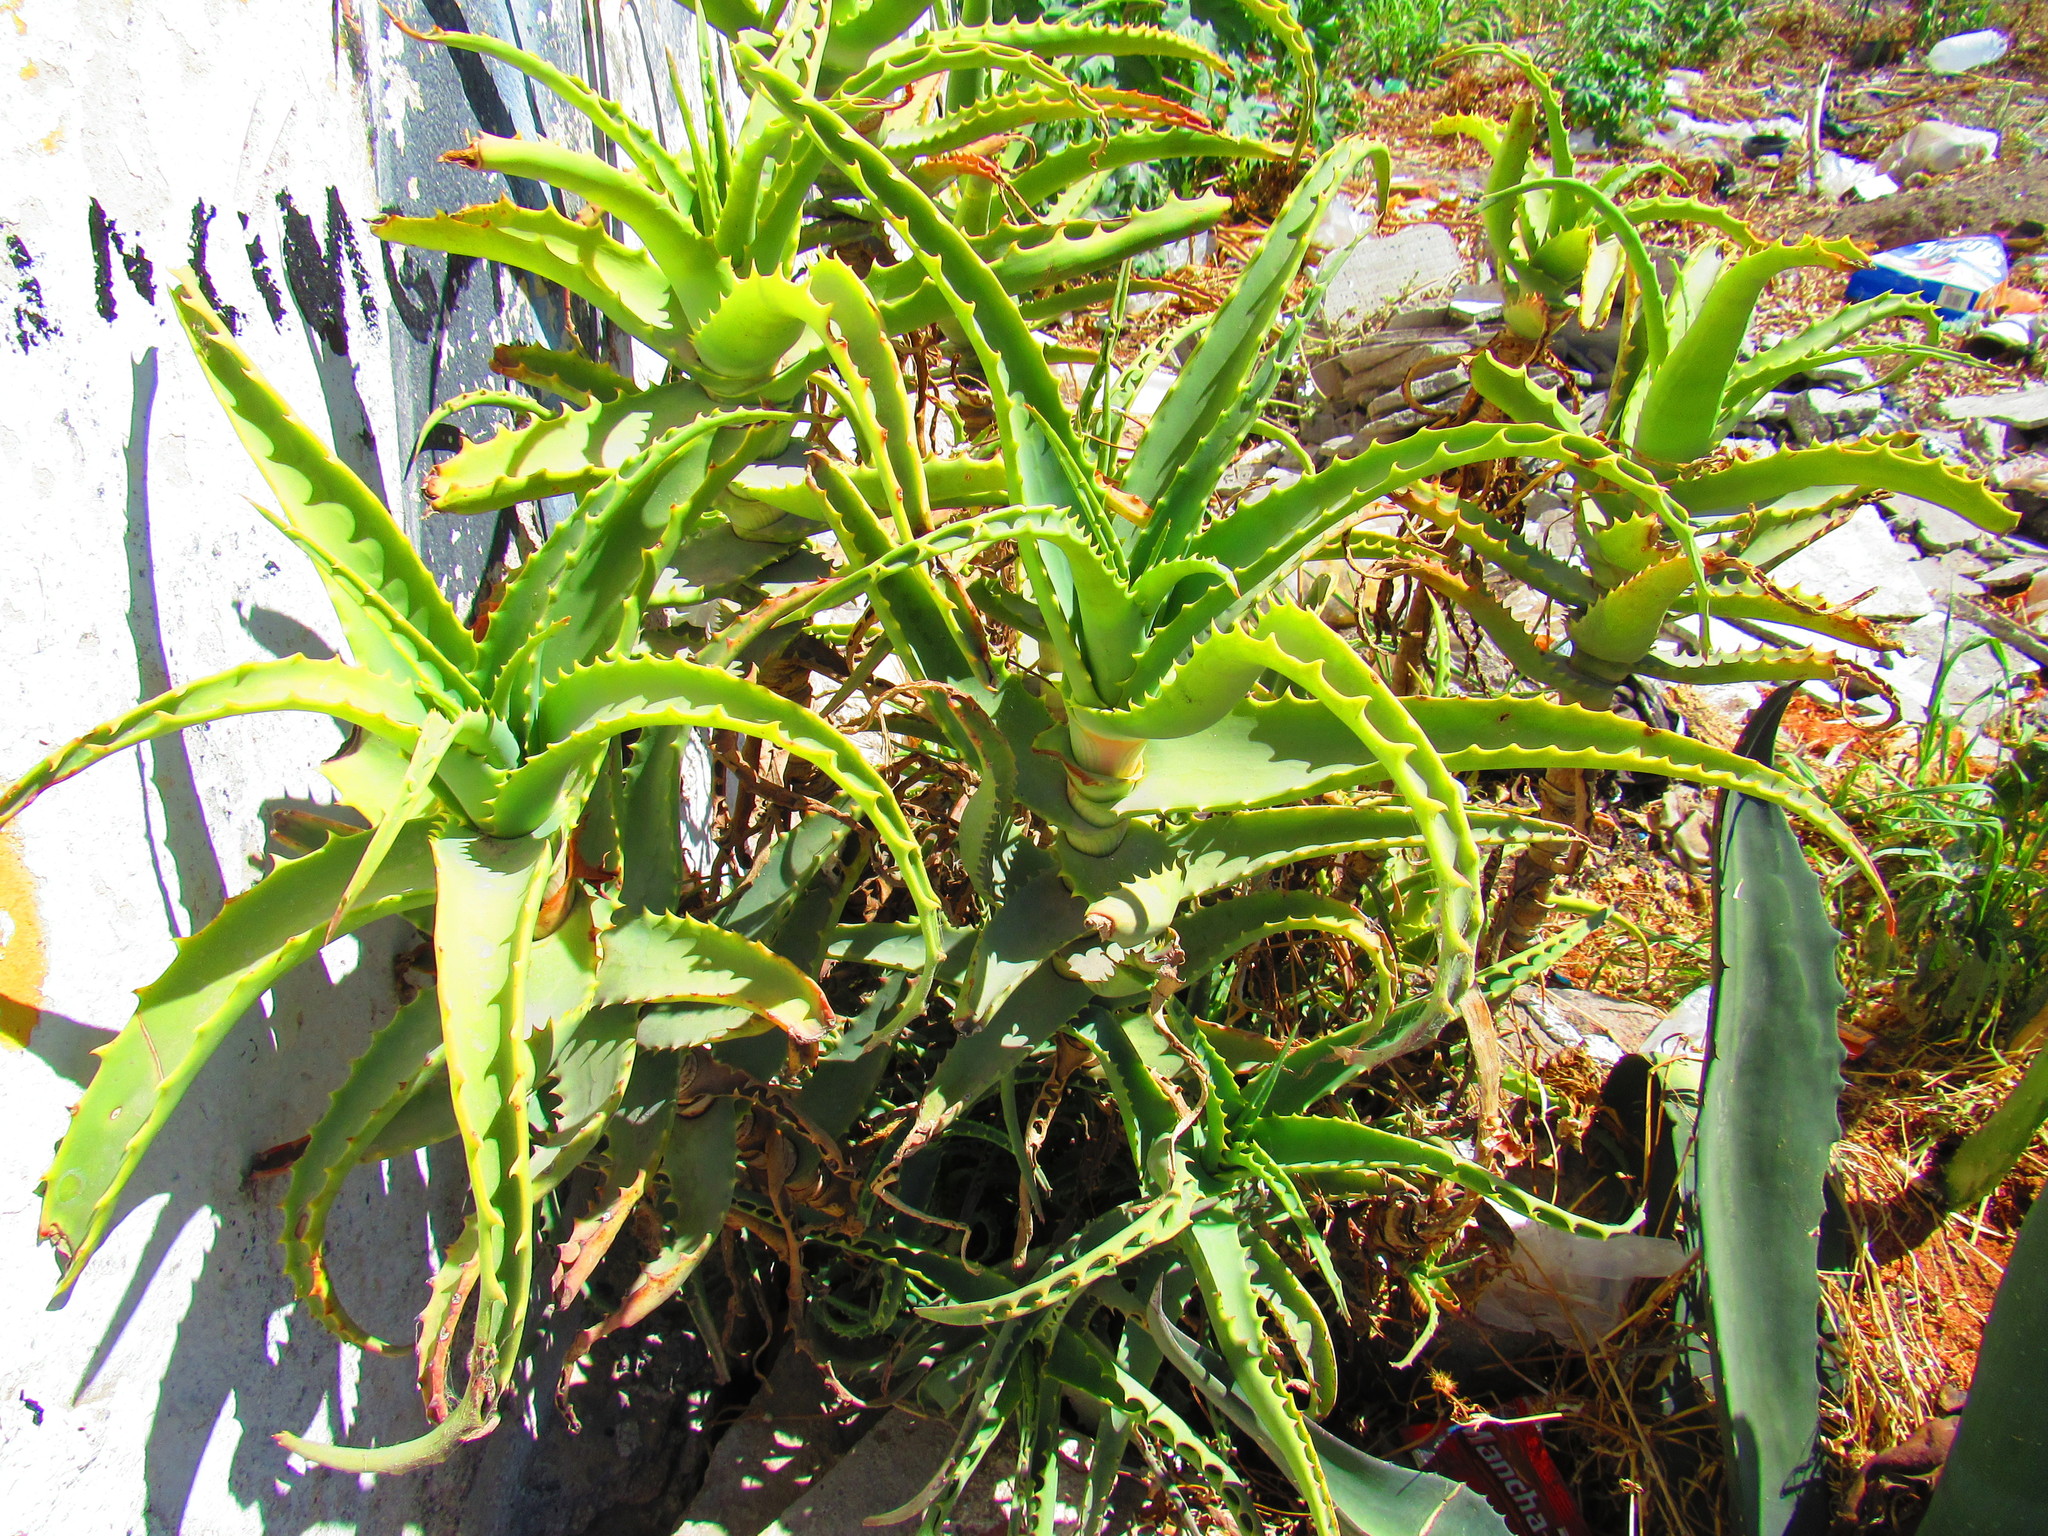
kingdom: Plantae
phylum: Tracheophyta
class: Liliopsida
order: Asparagales
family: Asphodelaceae
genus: Aloe
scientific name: Aloe arborescens
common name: Candelabra aloe
